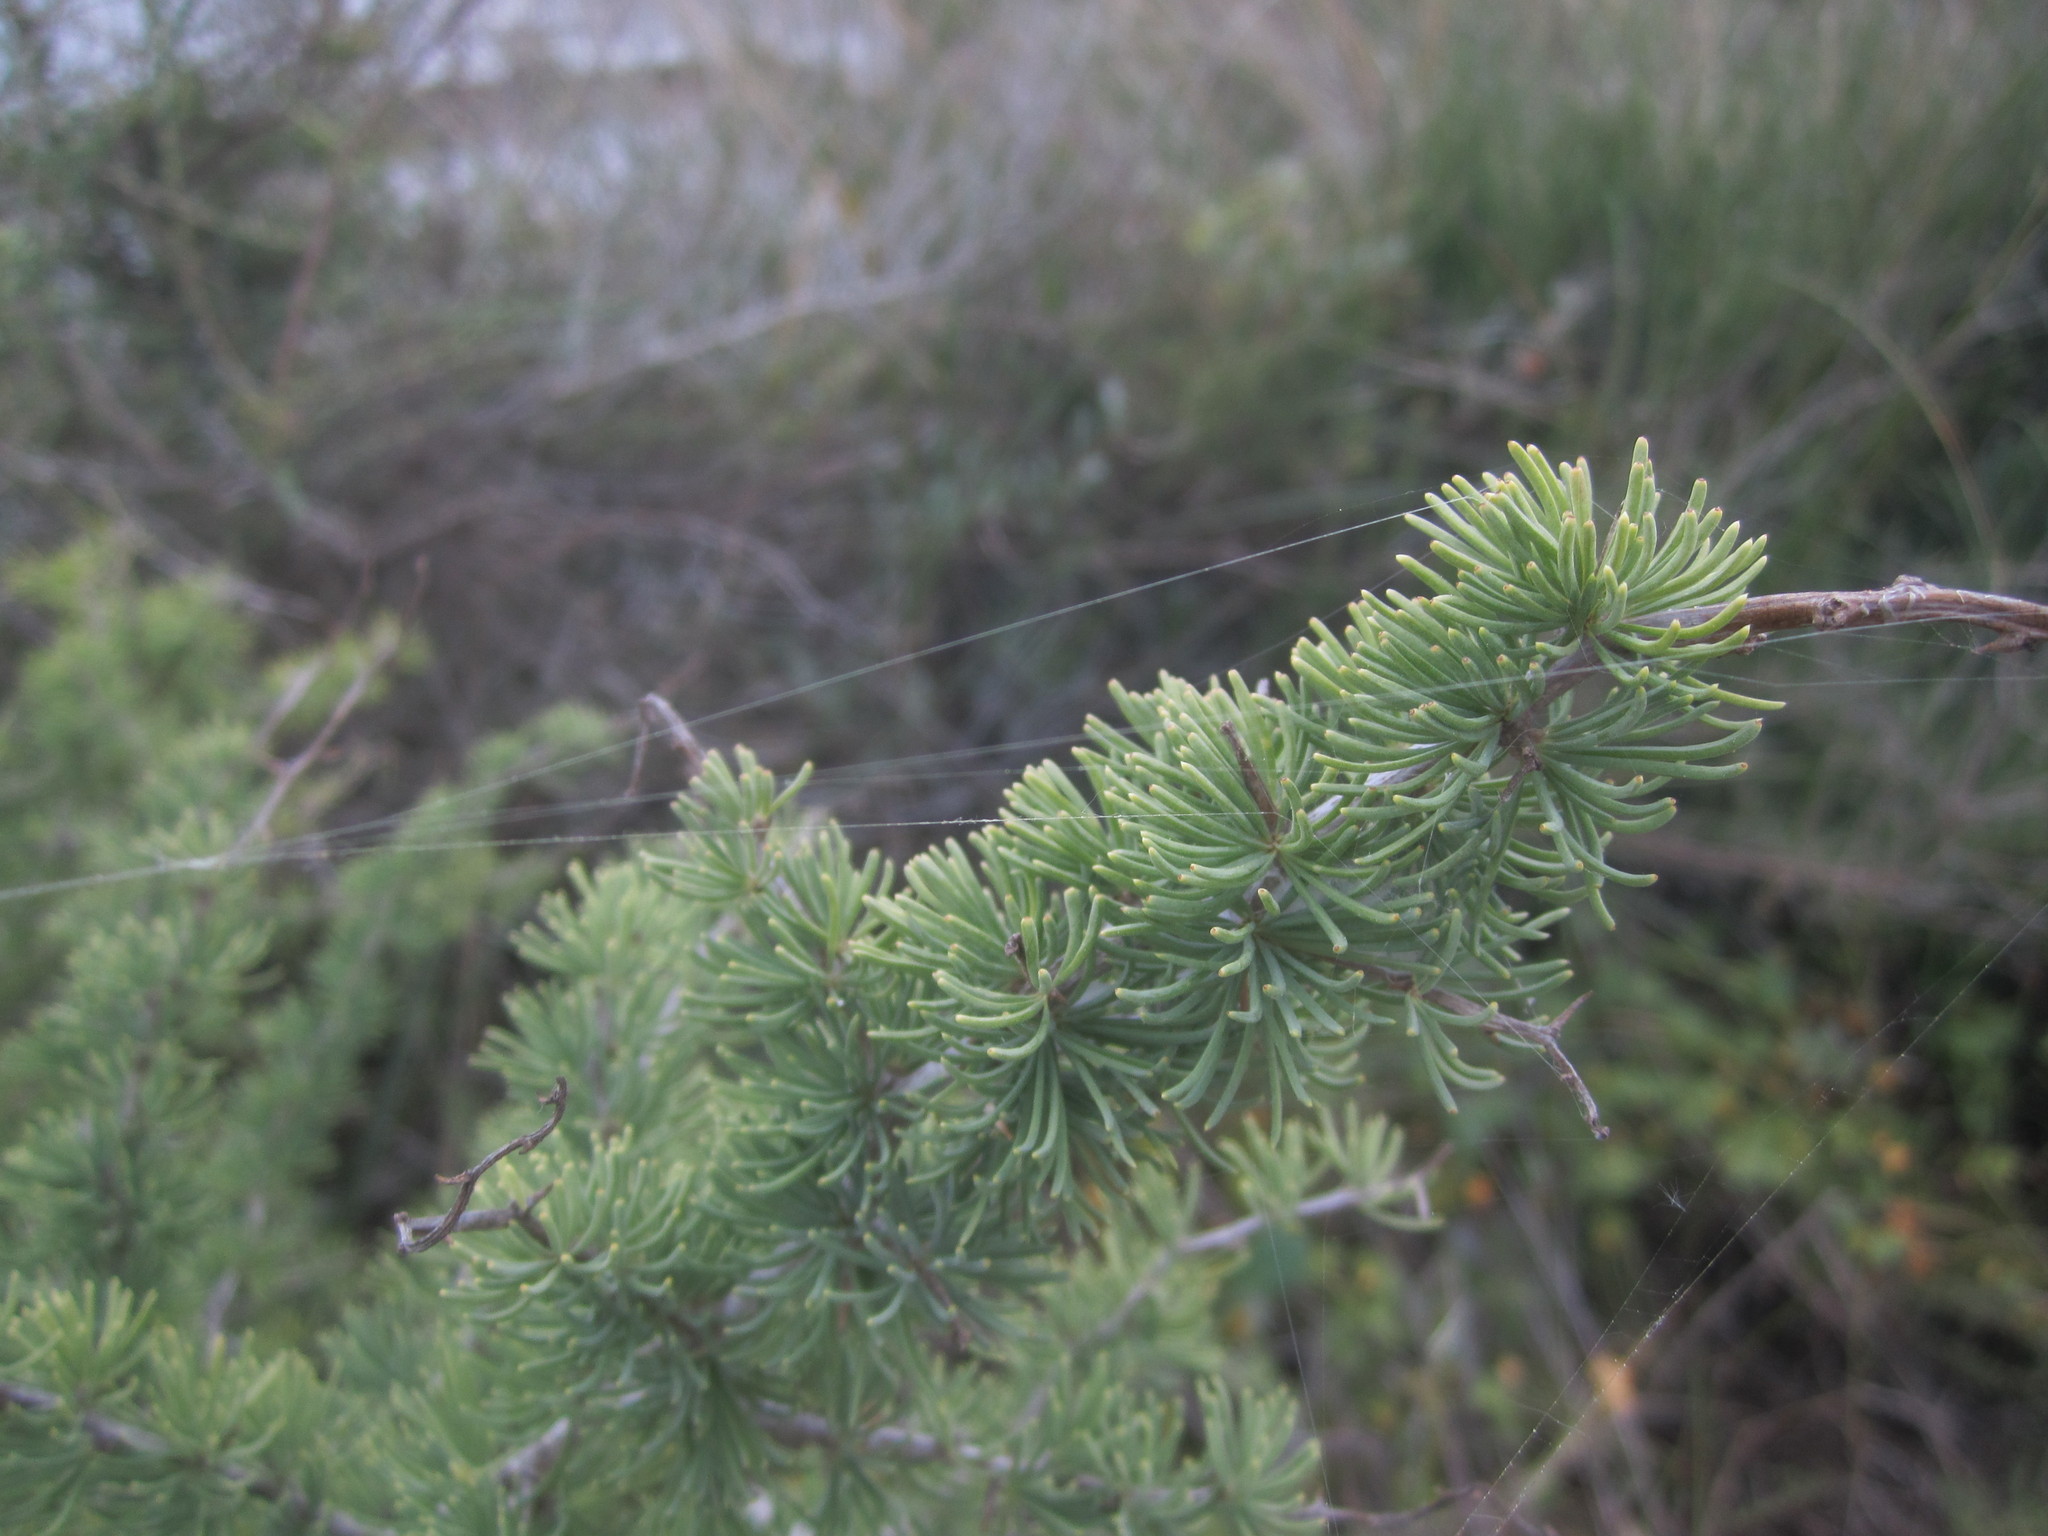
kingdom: Plantae
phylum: Tracheophyta
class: Liliopsida
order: Asparagales
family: Asparagaceae
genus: Asparagus
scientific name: Asparagus albus
